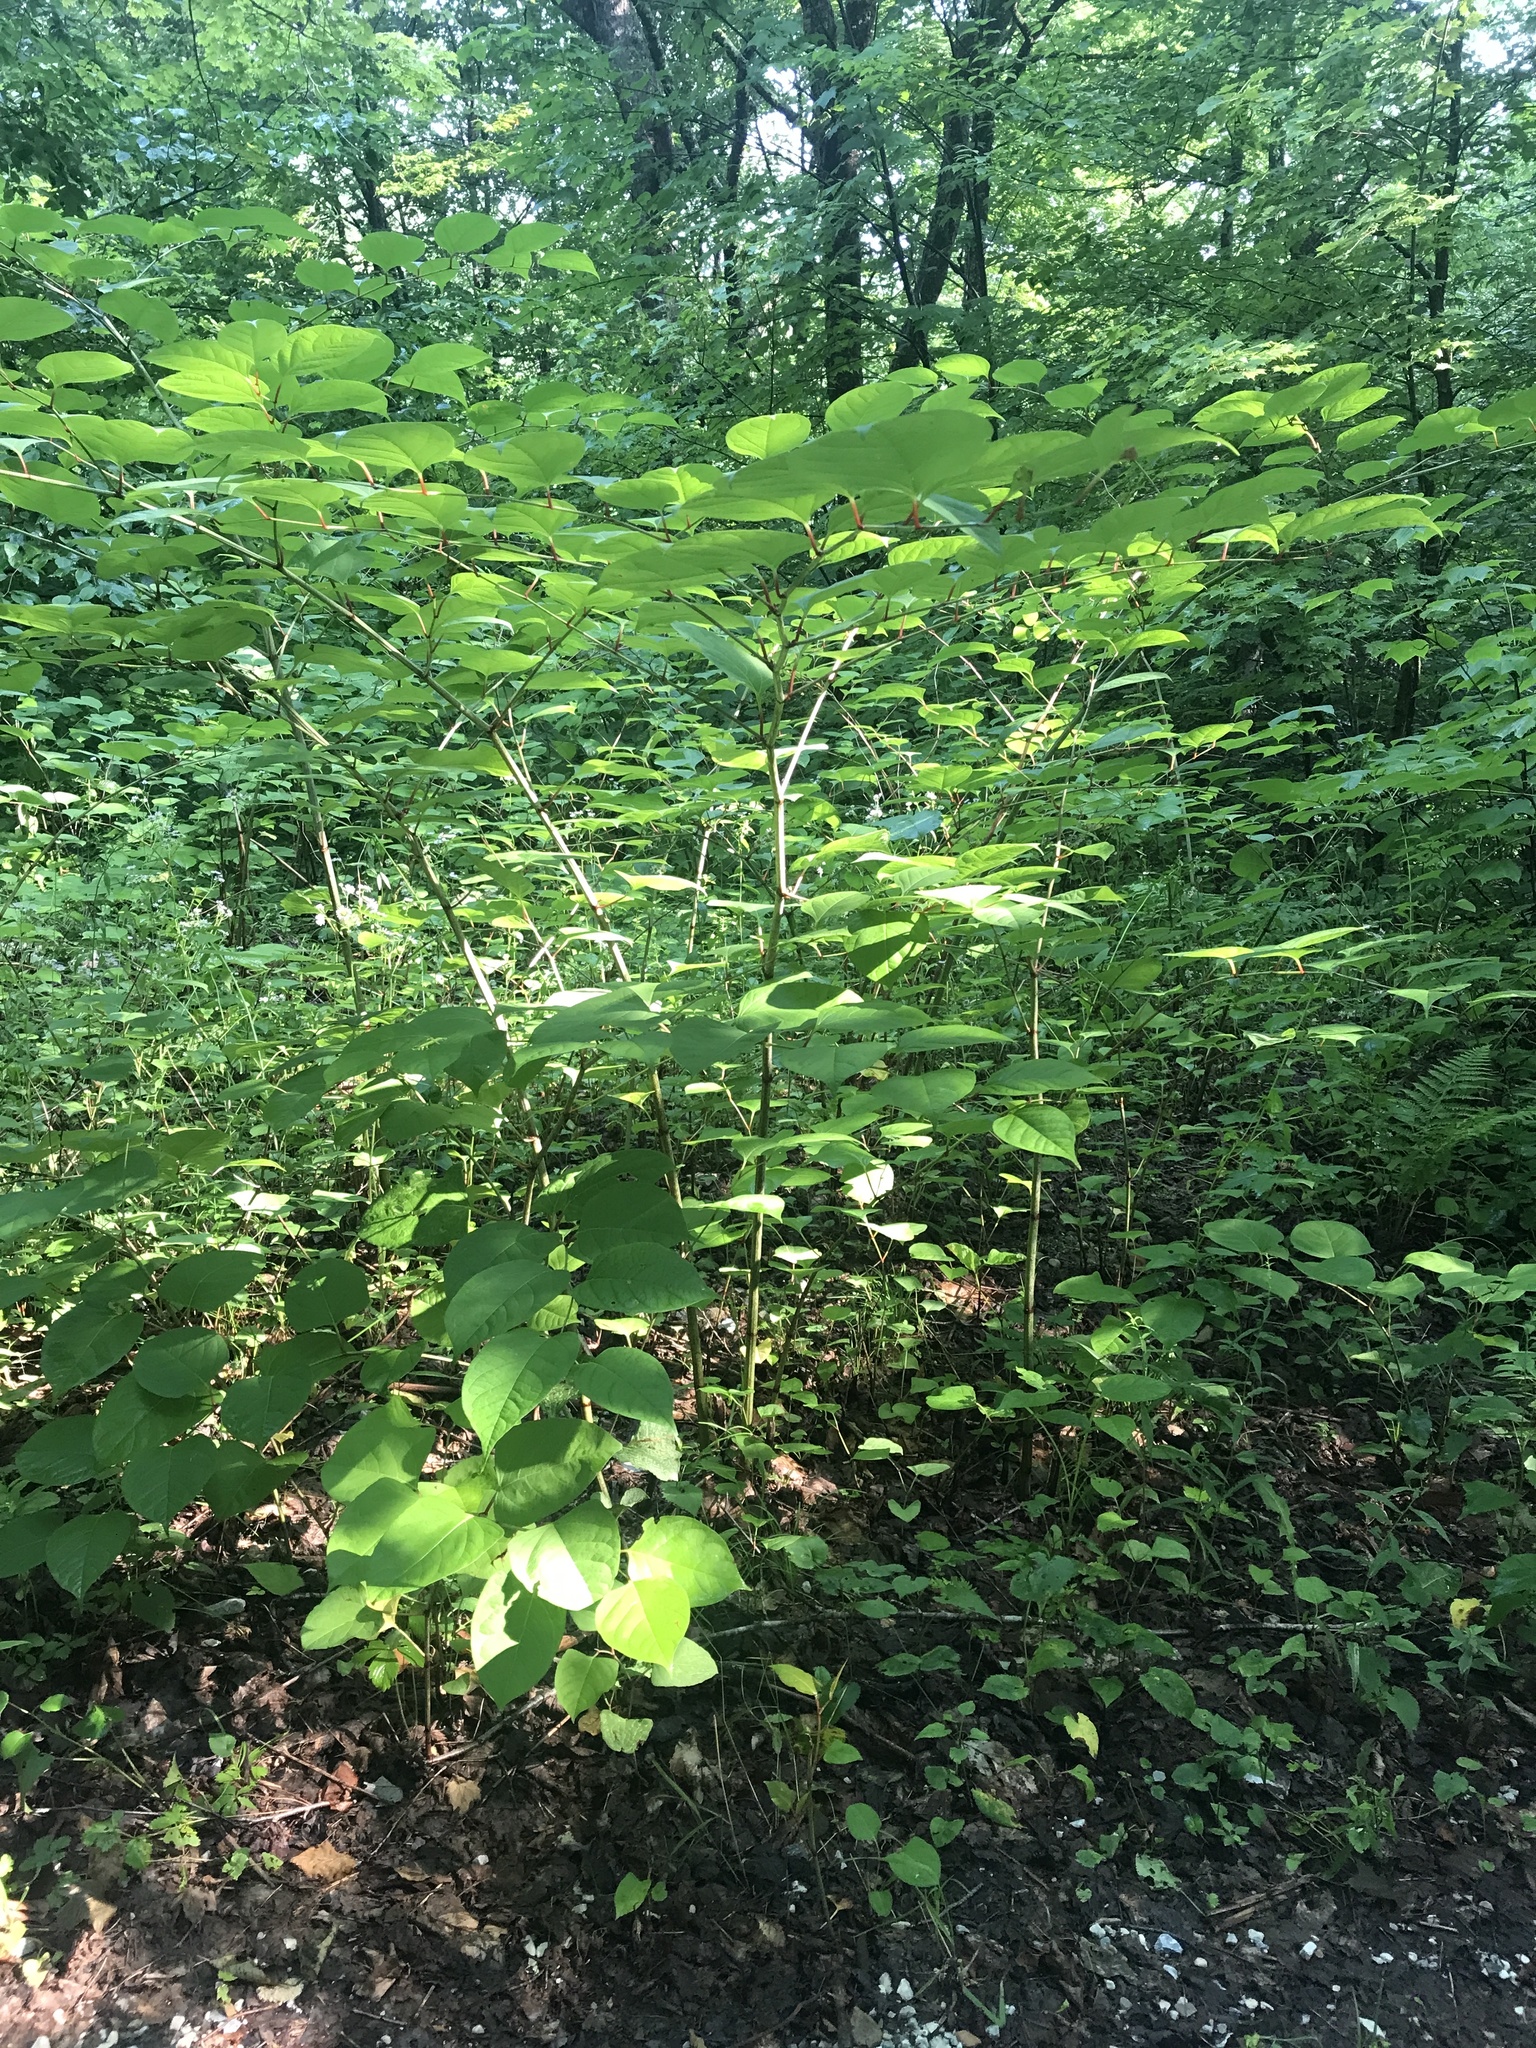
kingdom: Plantae
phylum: Tracheophyta
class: Magnoliopsida
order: Caryophyllales
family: Polygonaceae
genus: Reynoutria
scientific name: Reynoutria japonica
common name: Japanese knotweed
